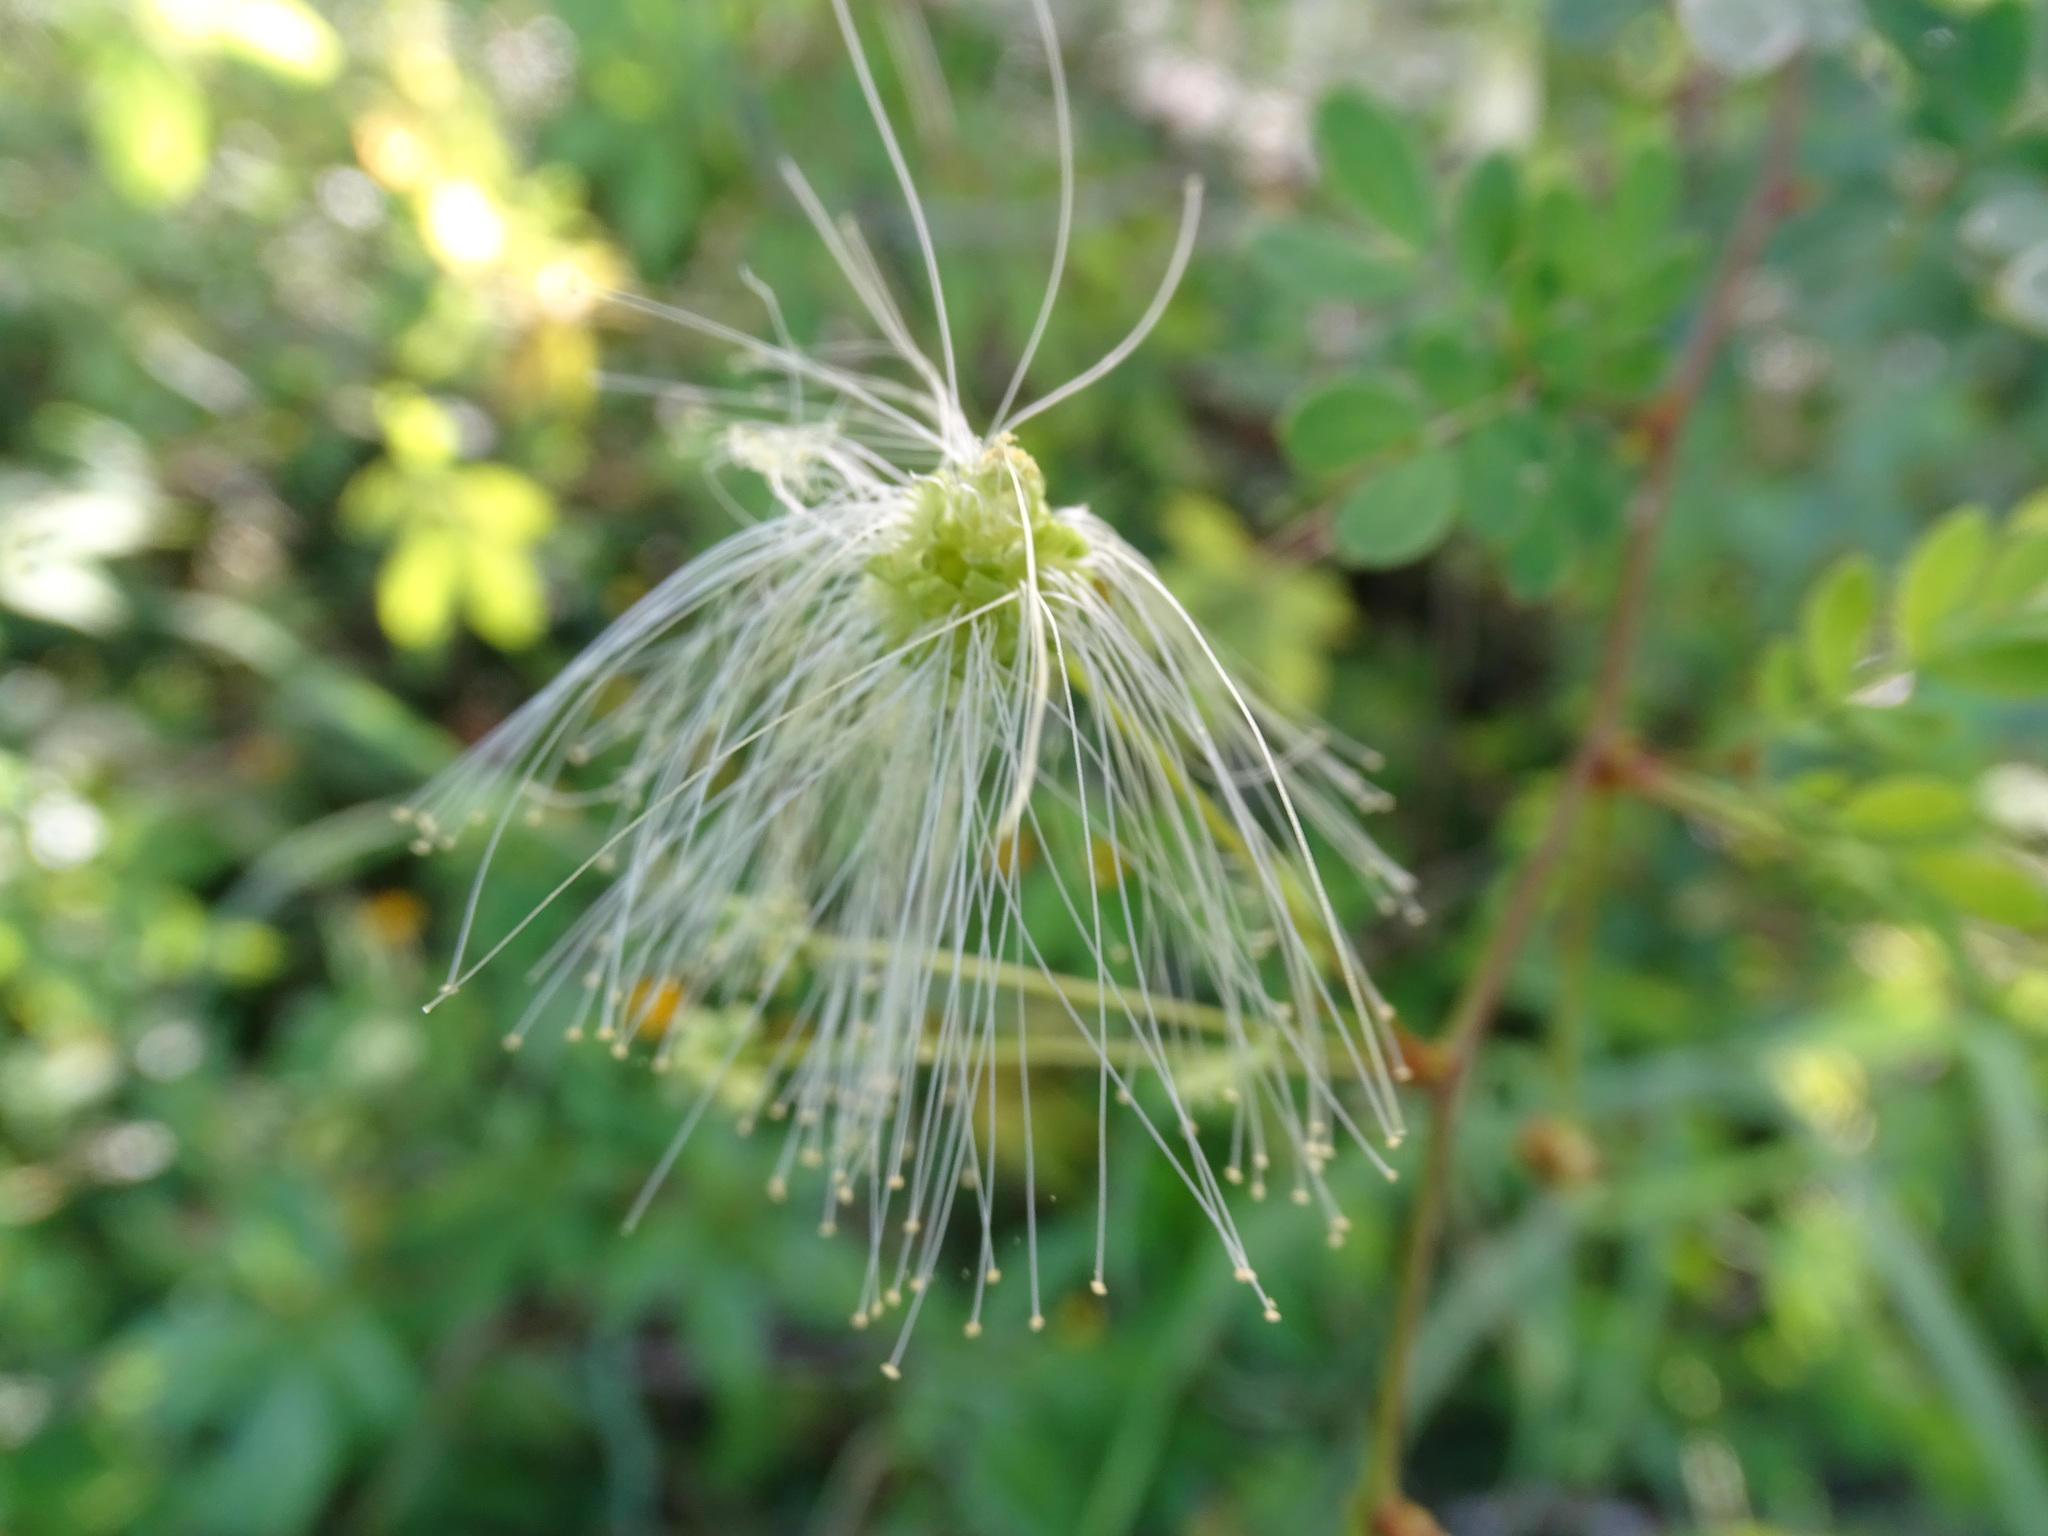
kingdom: Plantae
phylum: Tracheophyta
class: Magnoliopsida
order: Fabales
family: Fabaceae
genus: Zapoteca
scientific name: Zapoteca formosa
